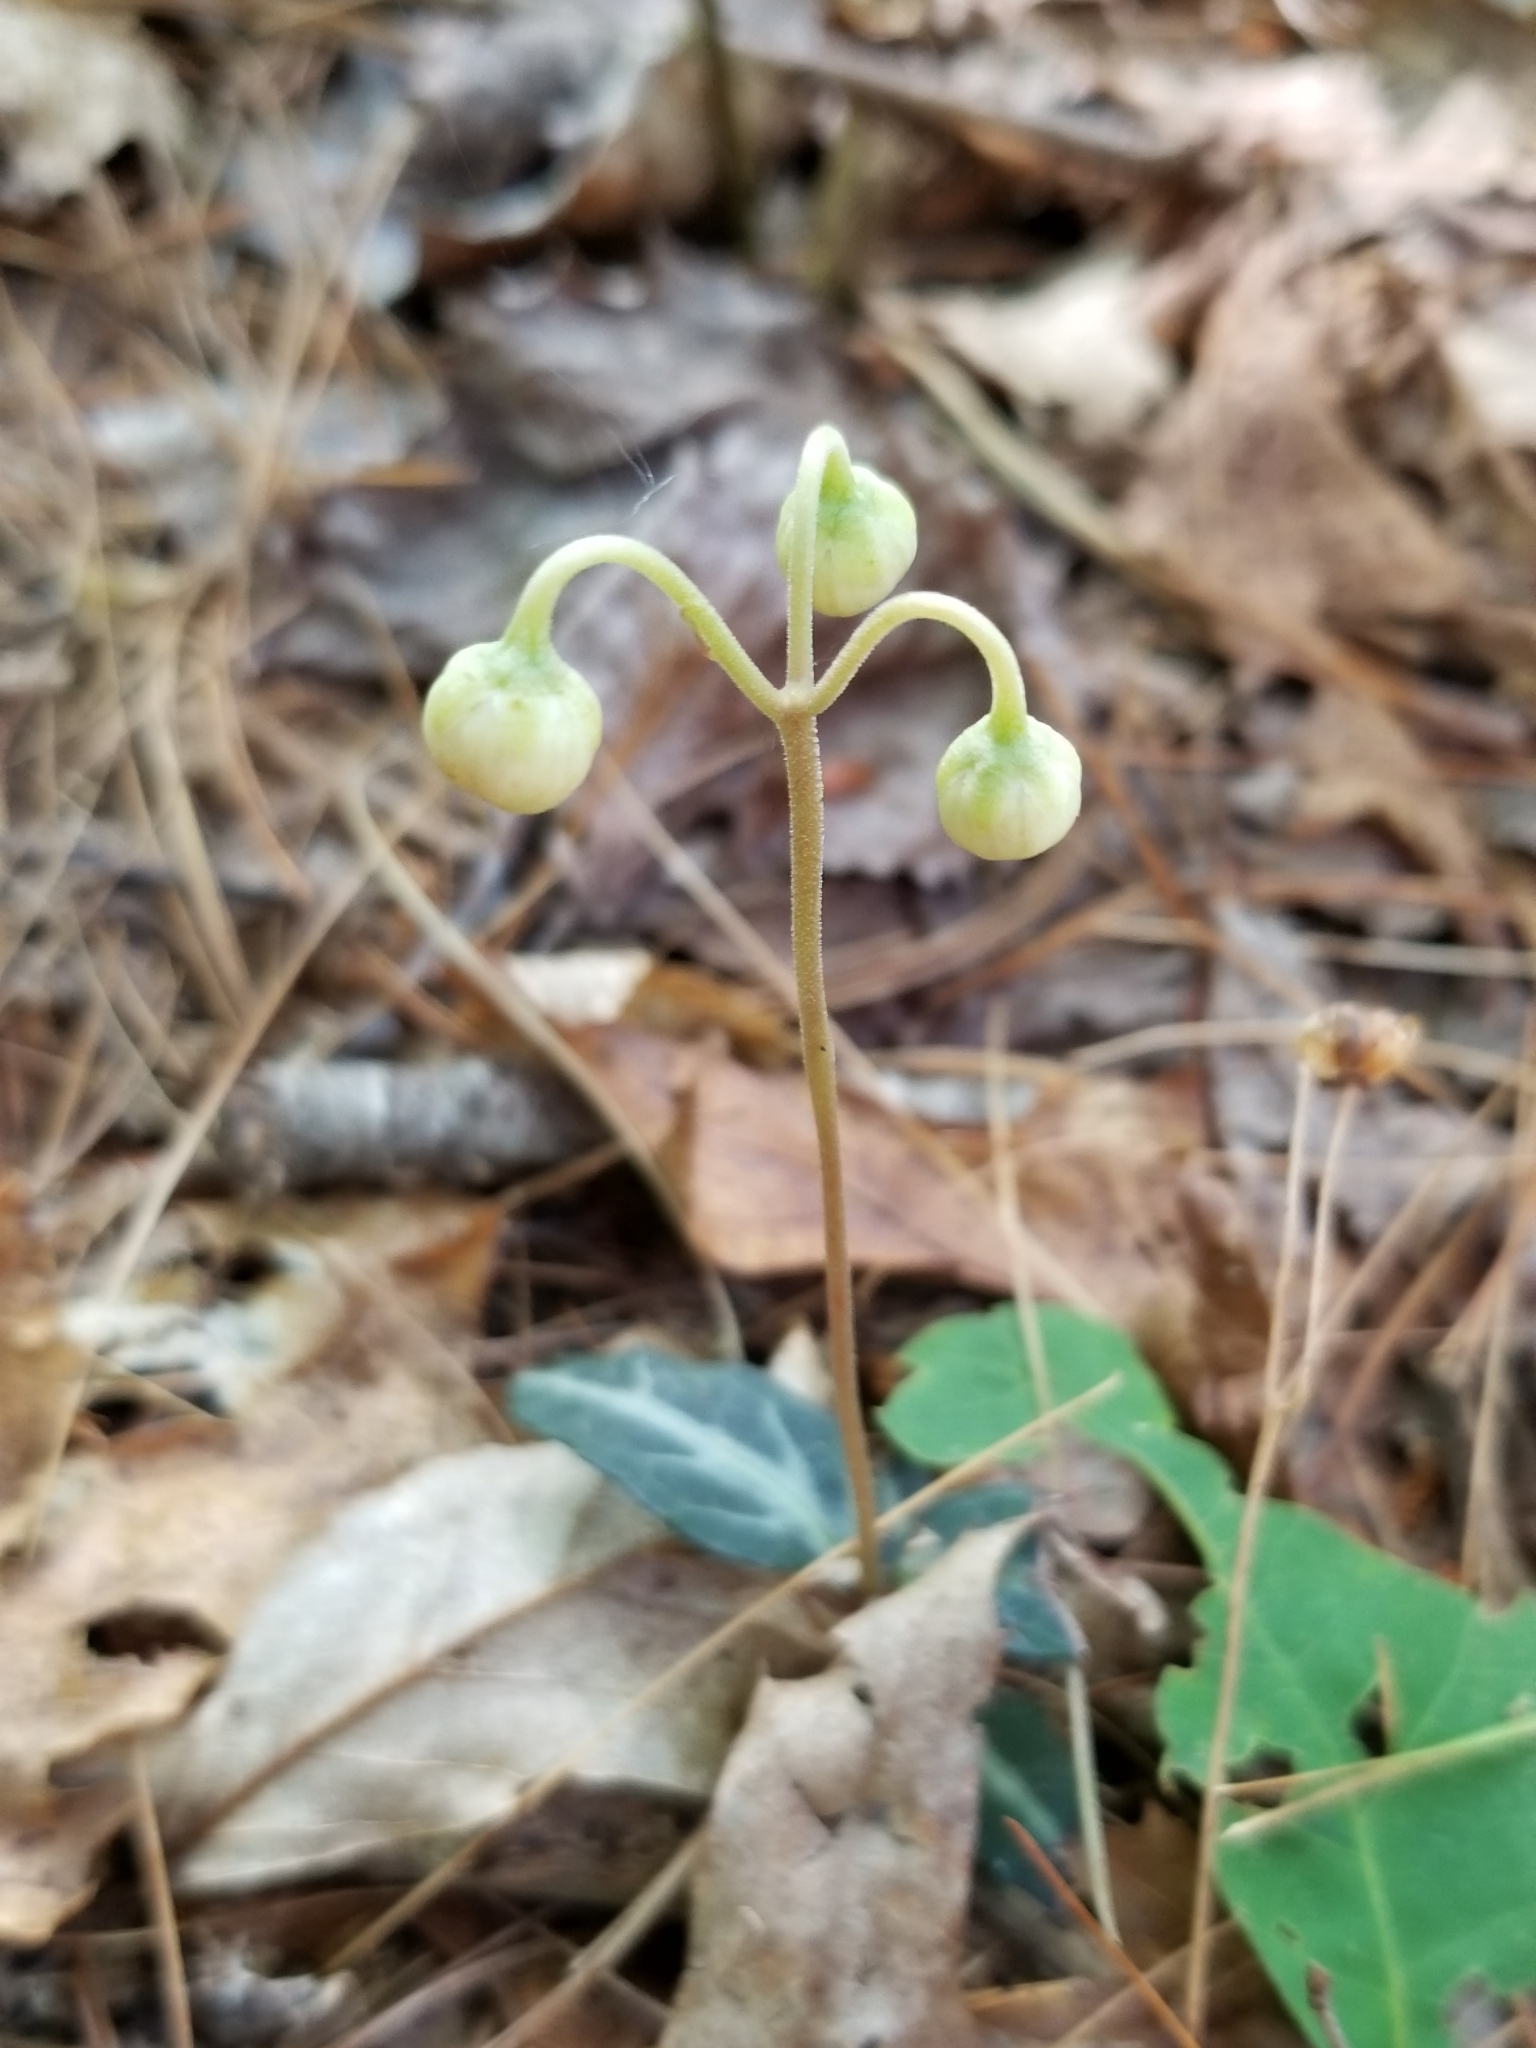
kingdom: Plantae
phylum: Tracheophyta
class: Magnoliopsida
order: Ericales
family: Ericaceae
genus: Chimaphila
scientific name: Chimaphila maculata
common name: Spotted pipsissewa
